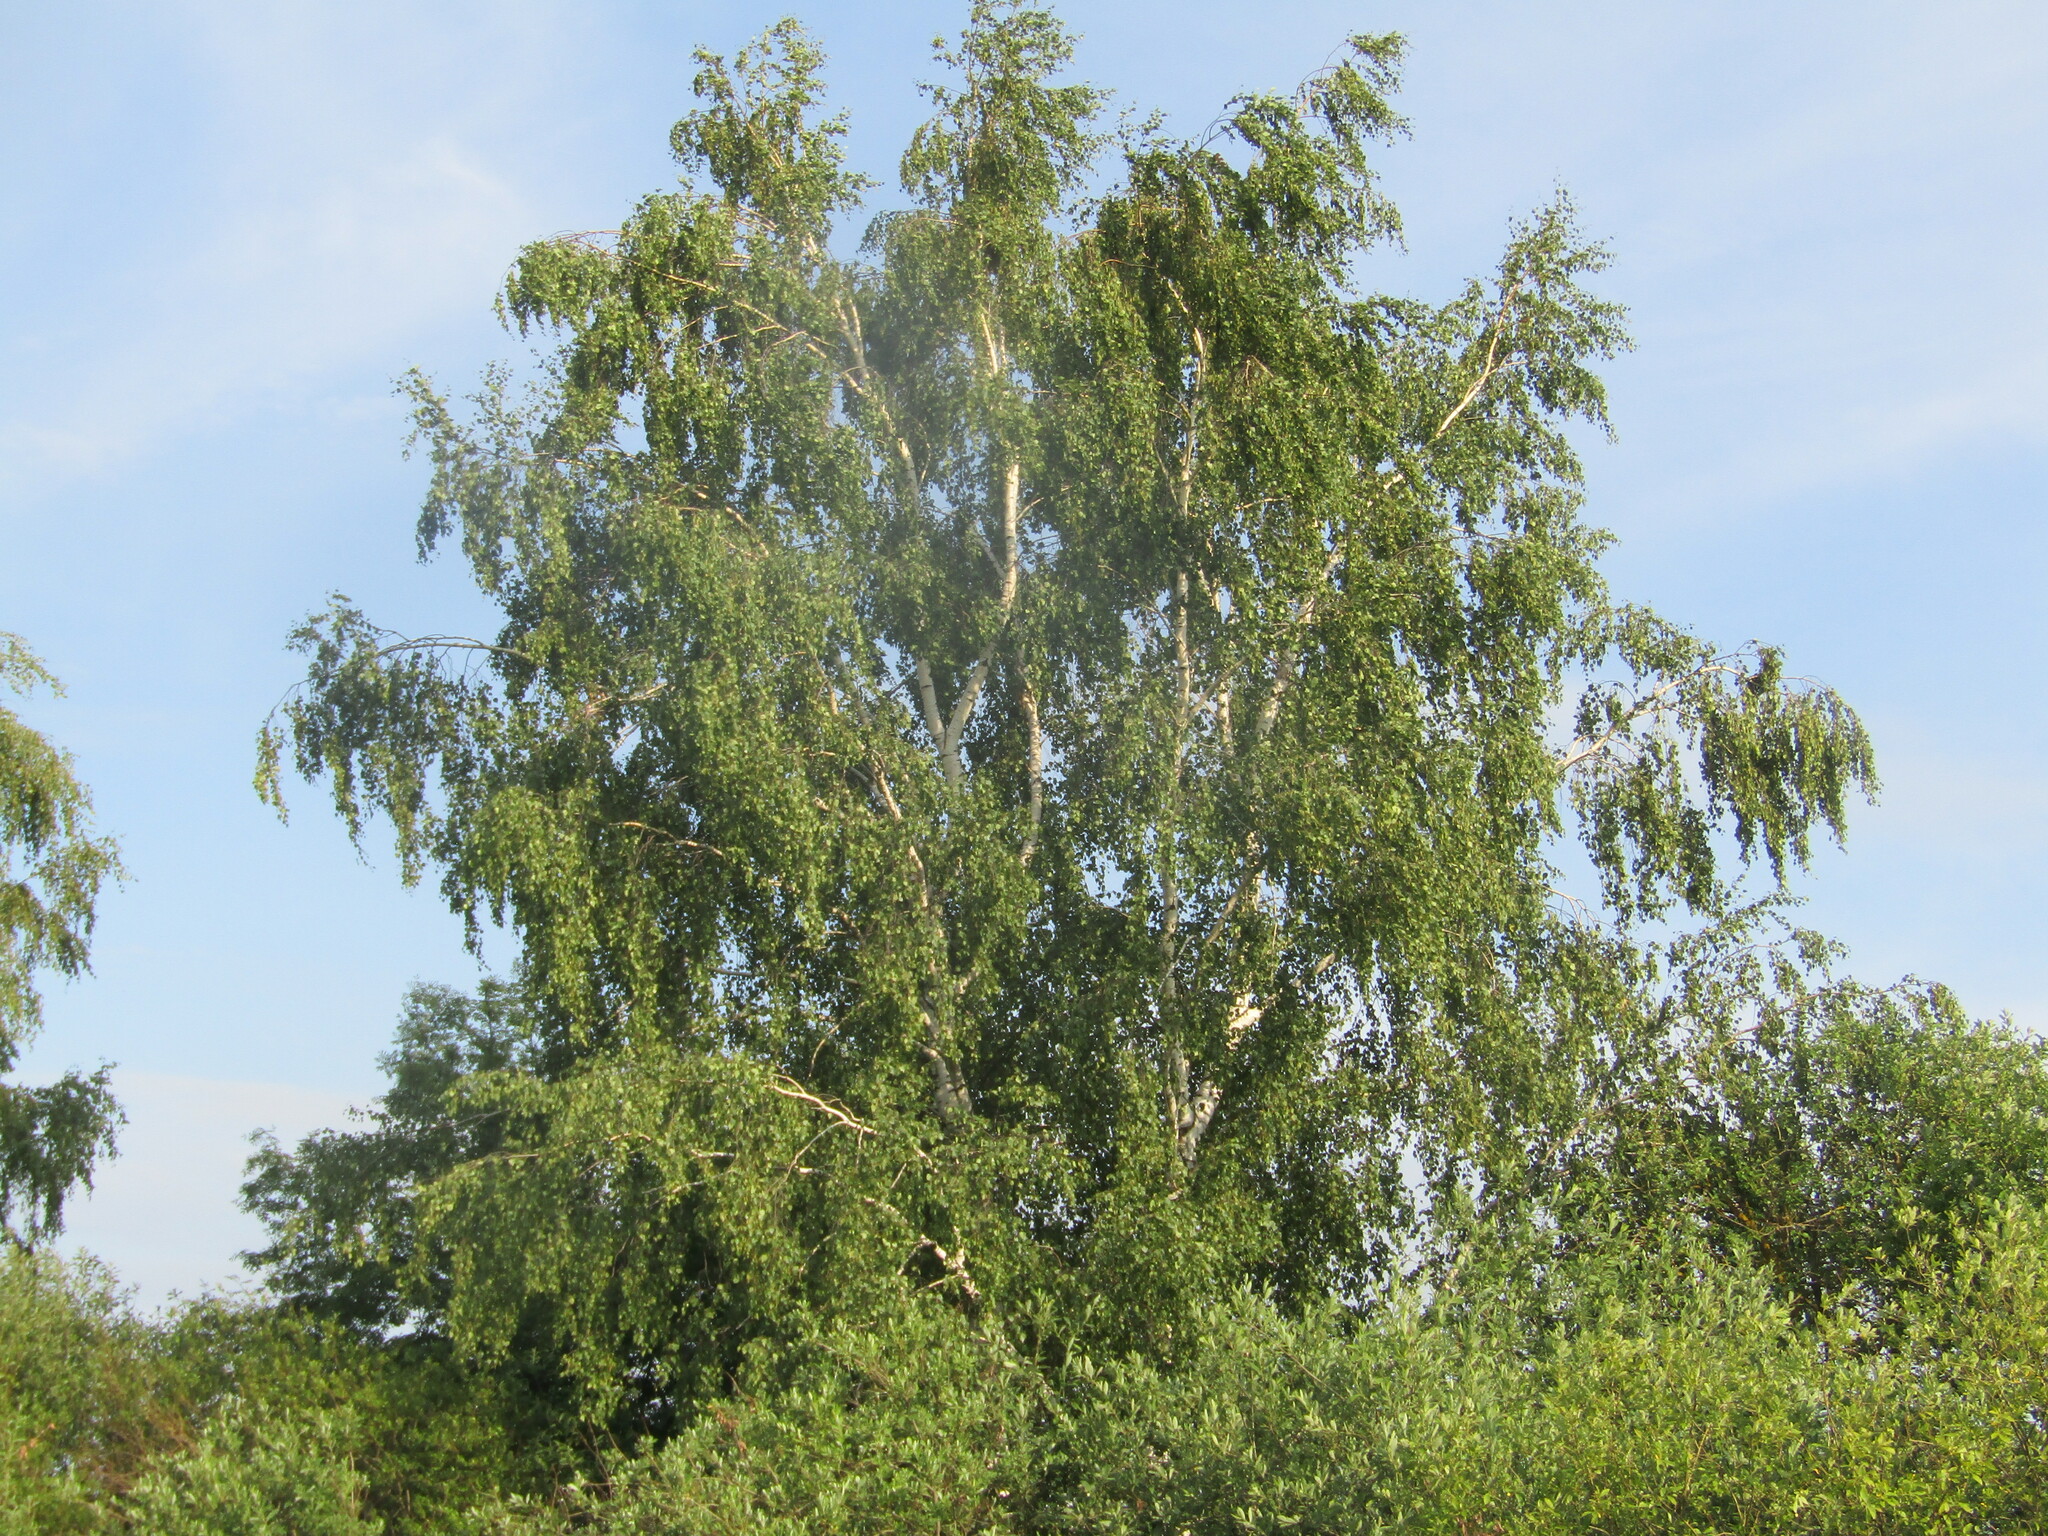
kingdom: Plantae
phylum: Tracheophyta
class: Magnoliopsida
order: Fagales
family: Betulaceae
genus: Betula
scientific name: Betula pendula
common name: Silver birch
